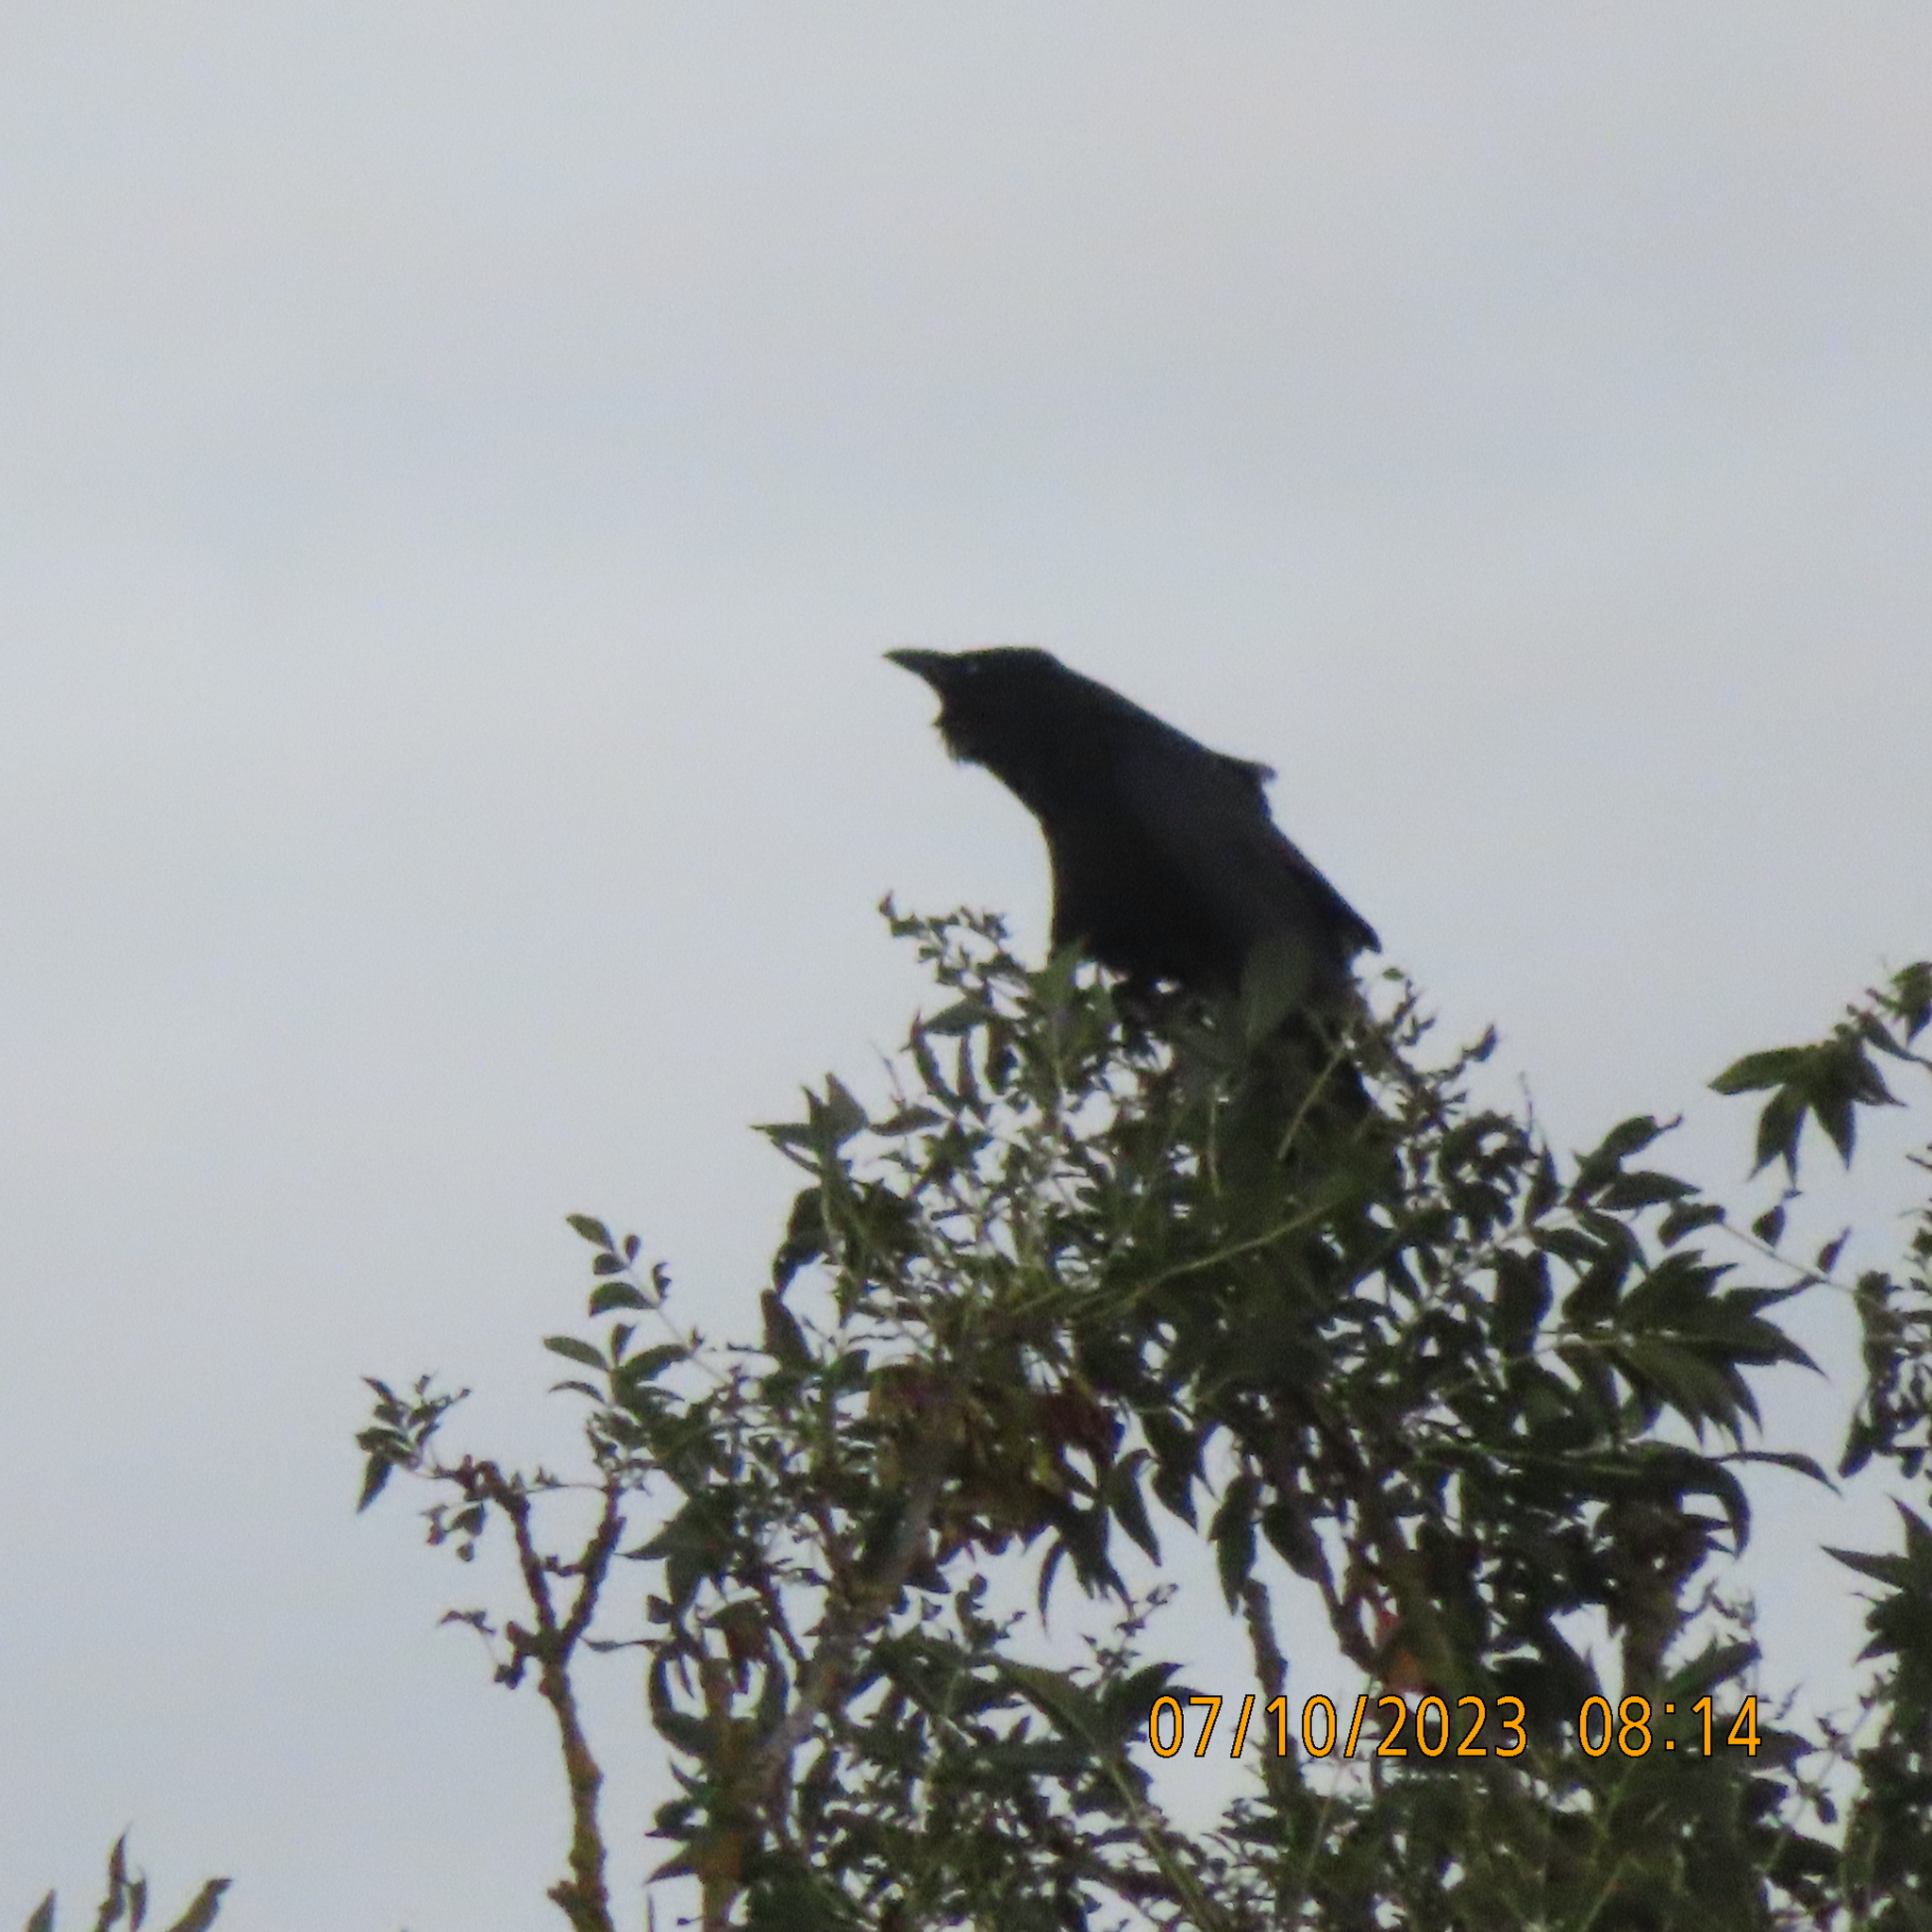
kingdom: Animalia
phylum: Chordata
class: Aves
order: Passeriformes
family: Corvidae
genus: Corvus
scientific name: Corvus frugilegus
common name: Rook
